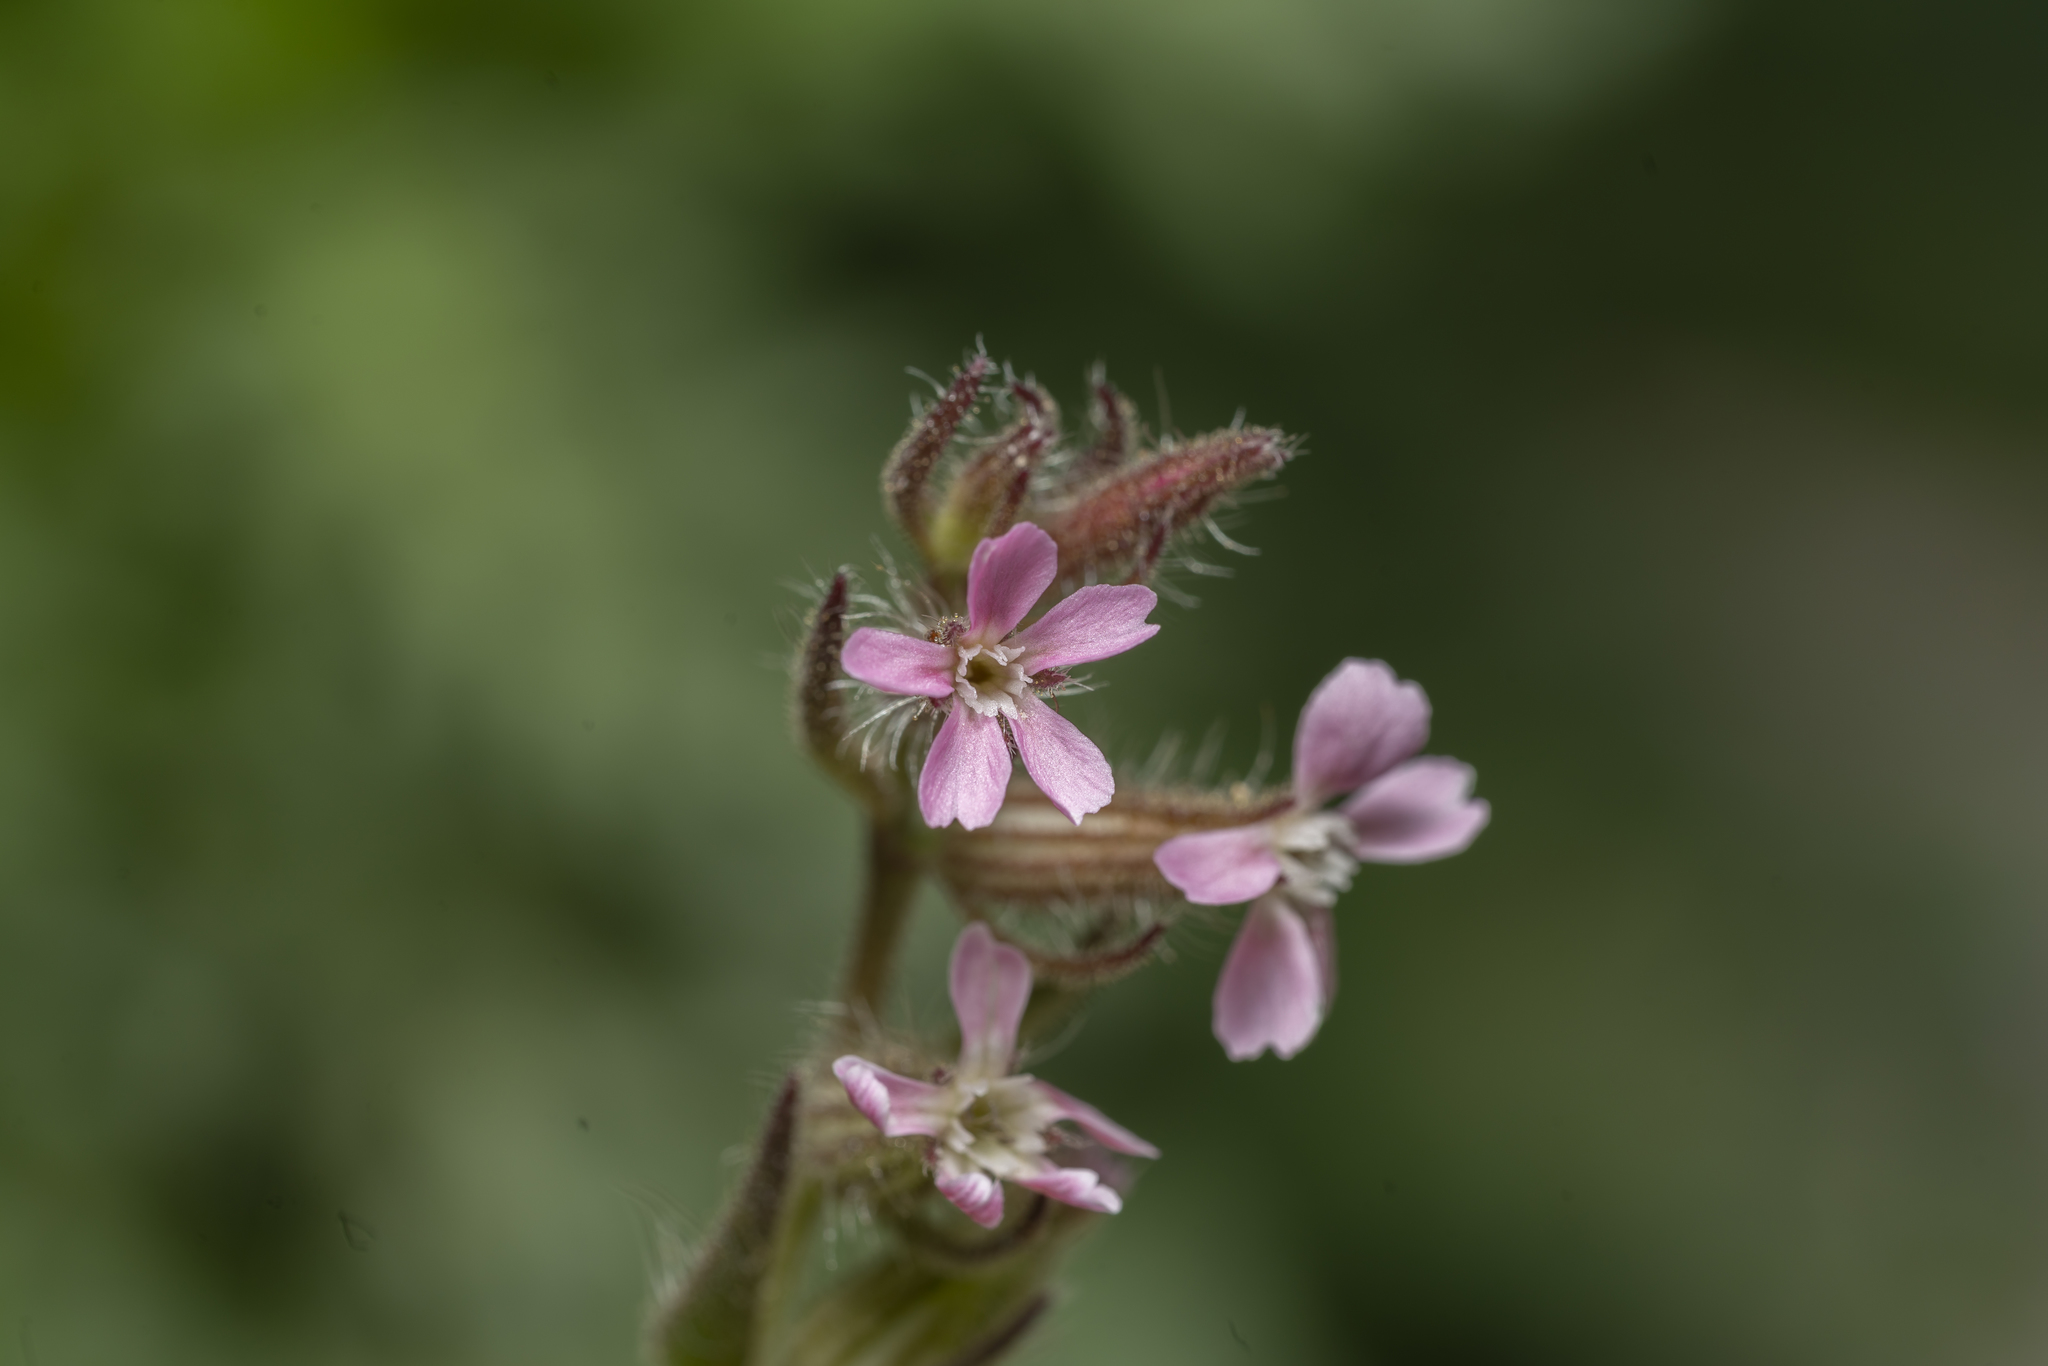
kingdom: Plantae
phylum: Tracheophyta
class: Magnoliopsida
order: Caryophyllales
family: Caryophyllaceae
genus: Silene
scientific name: Silene gallica
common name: Small-flowered catchfly
